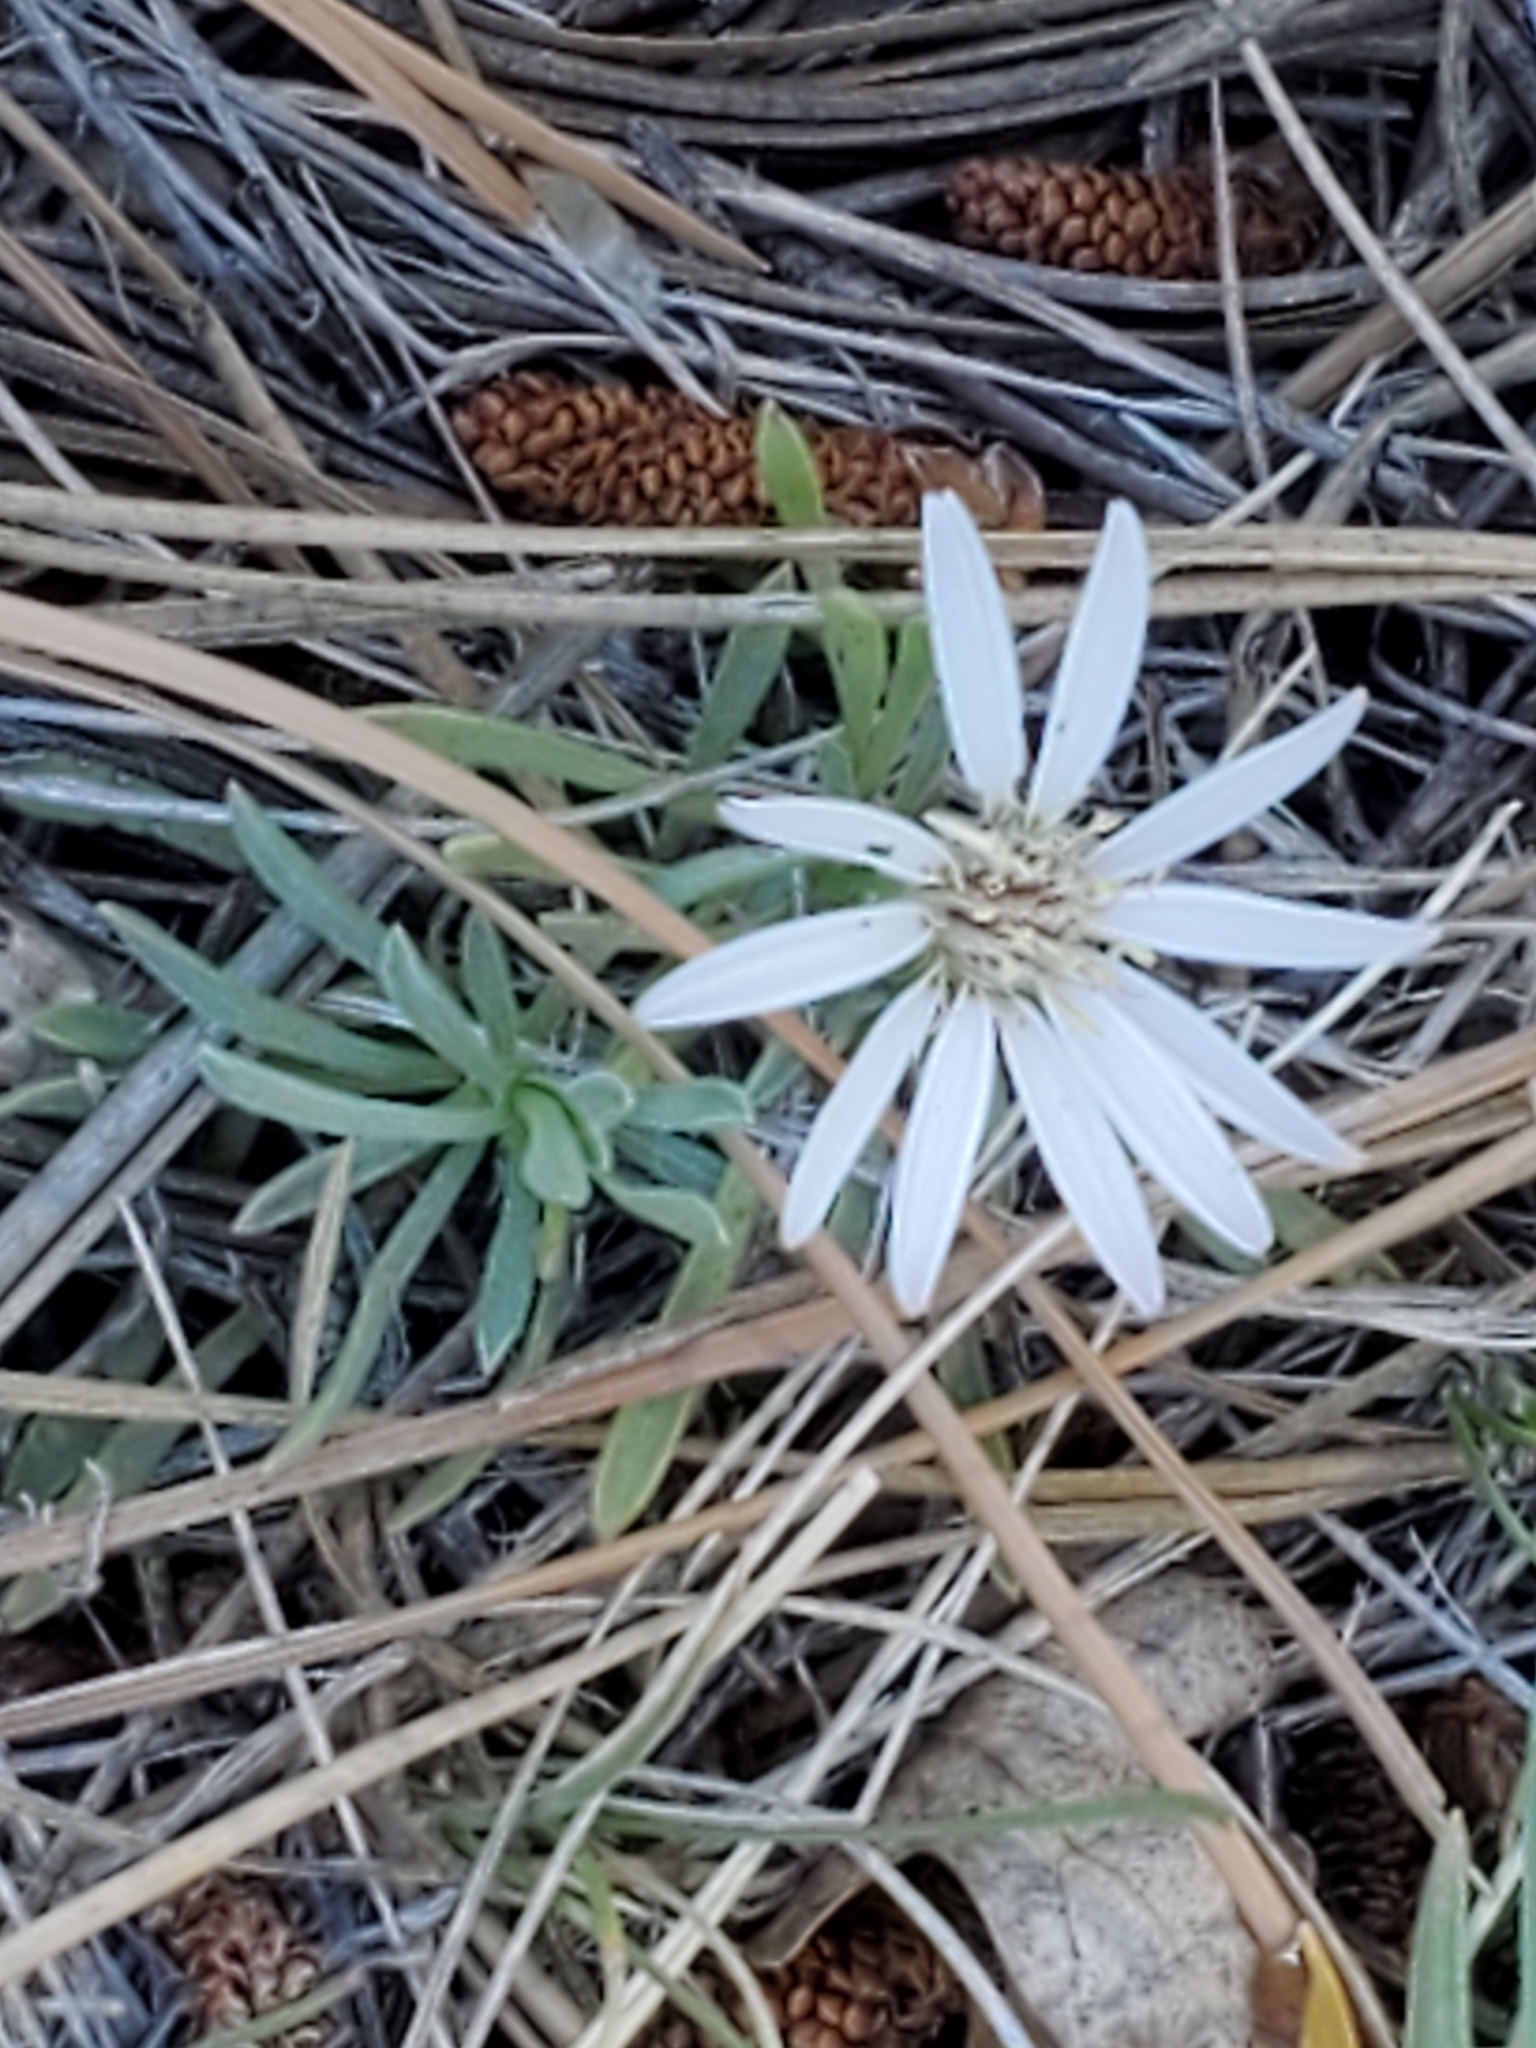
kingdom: Plantae
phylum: Tracheophyta
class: Magnoliopsida
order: Asterales
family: Asteraceae
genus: Townsendia
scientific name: Townsendia exscapa
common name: Dwarf townsendia
